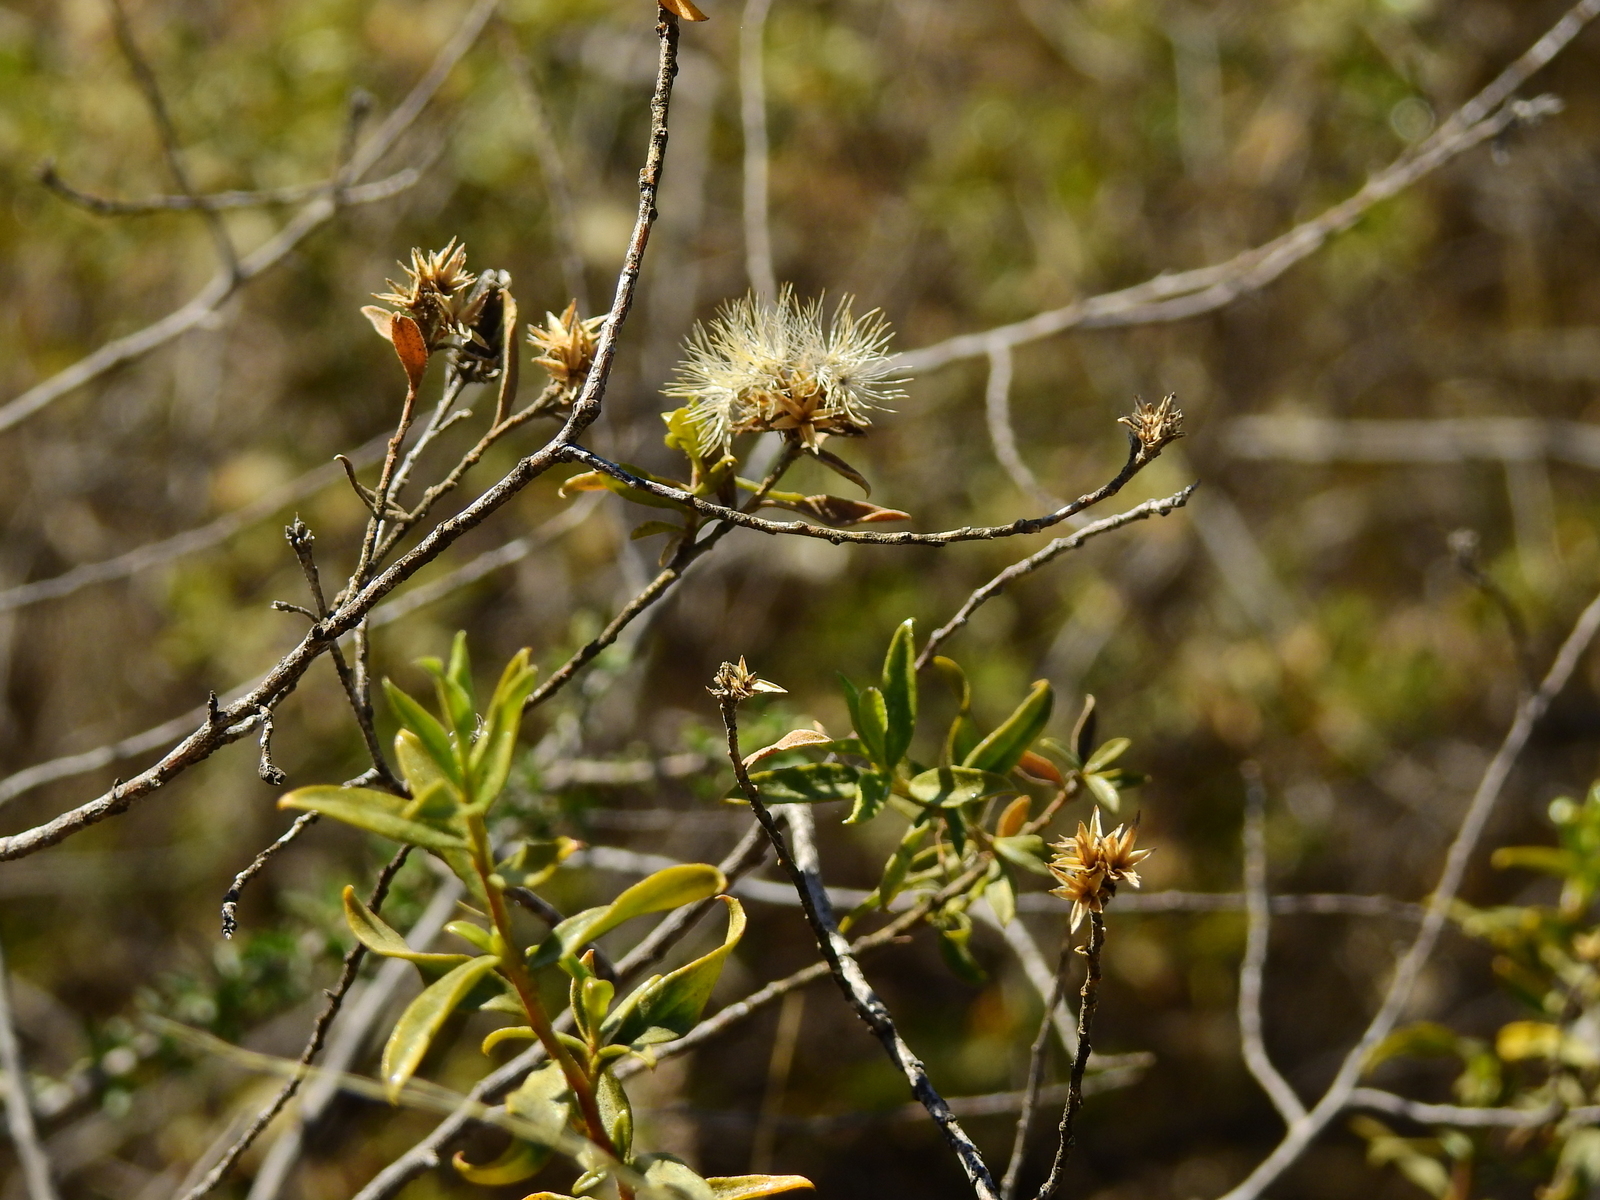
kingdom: Plantae
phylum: Tracheophyta
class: Magnoliopsida
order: Asterales
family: Asteraceae
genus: Gochnatia
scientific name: Gochnatia glutinosa
